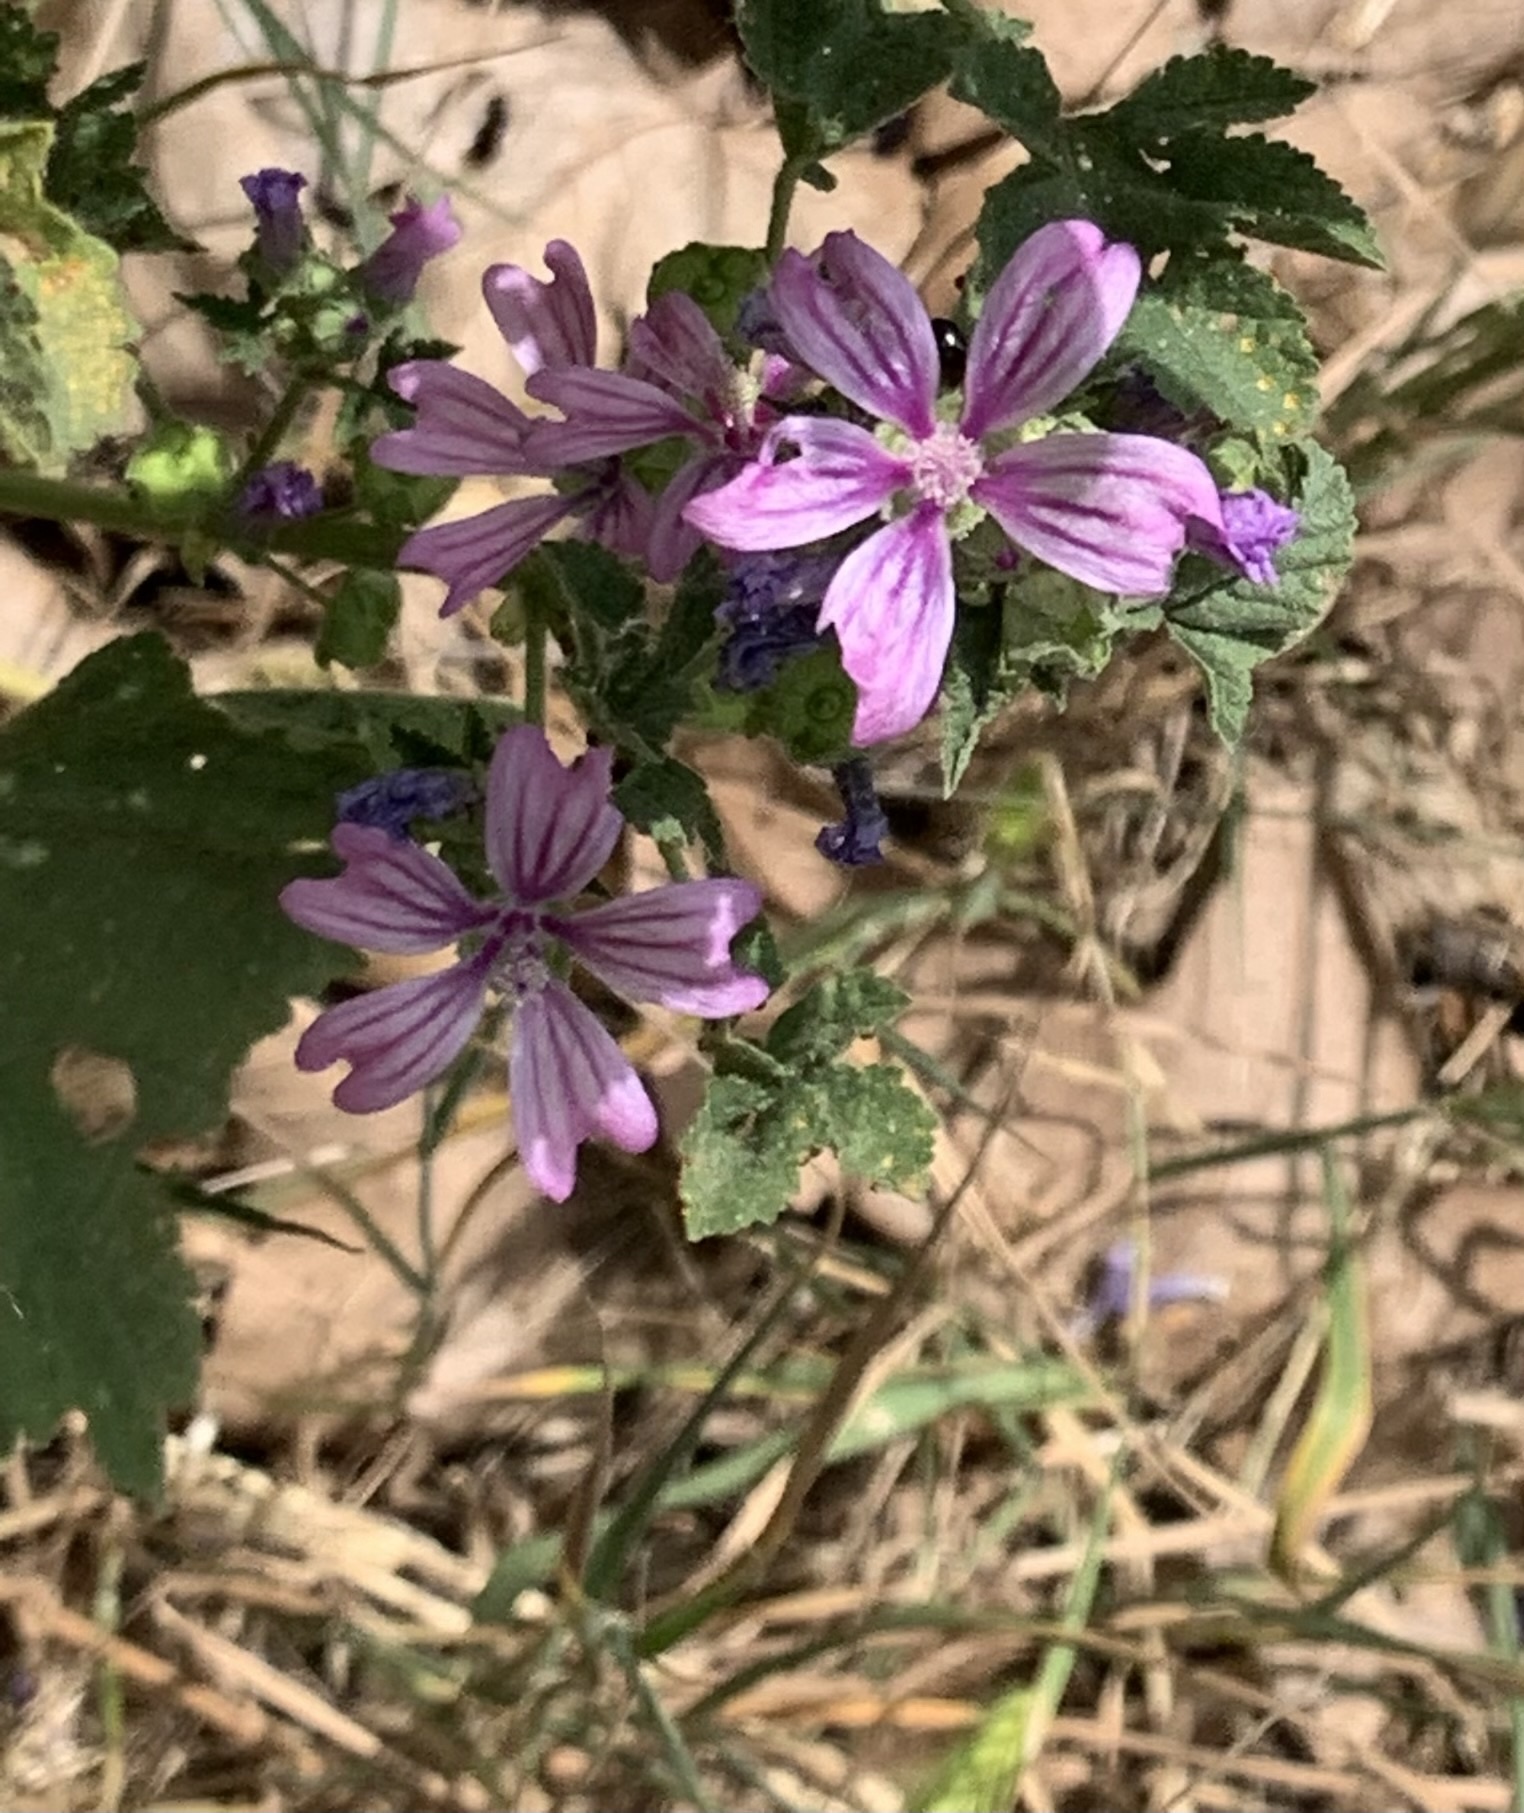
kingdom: Plantae
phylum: Tracheophyta
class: Magnoliopsida
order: Malvales
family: Malvaceae
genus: Malva
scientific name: Malva sylvestris
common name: Common mallow
